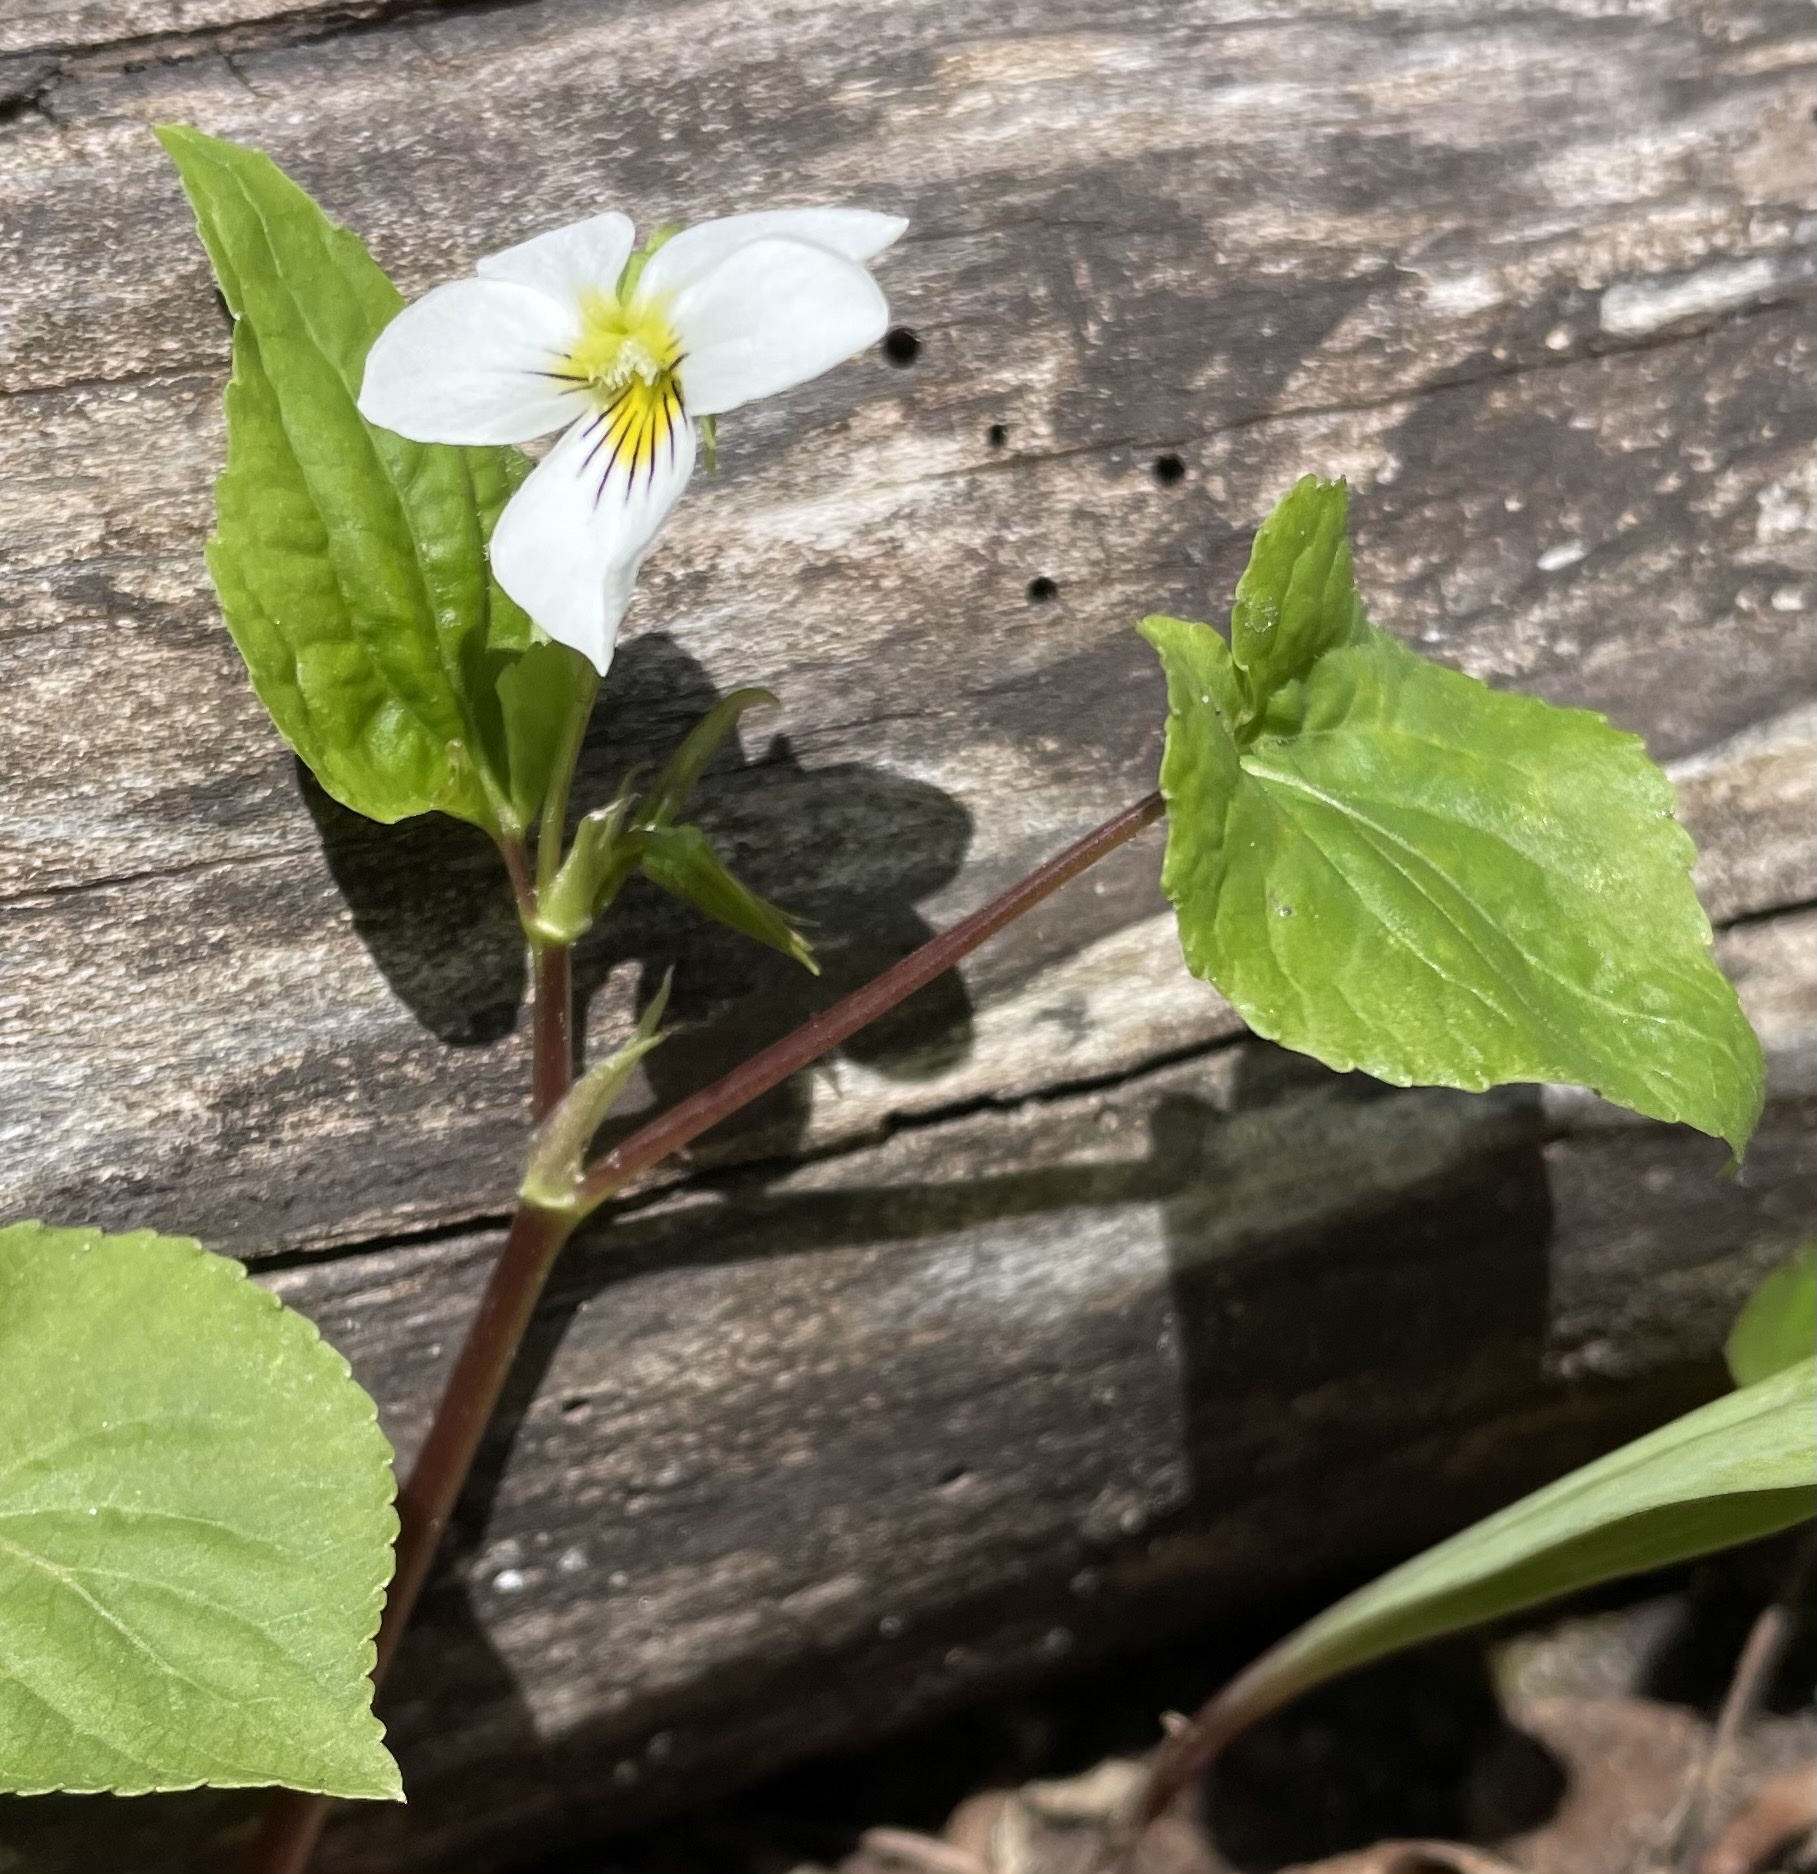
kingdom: Plantae
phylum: Tracheophyta
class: Magnoliopsida
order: Malpighiales
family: Violaceae
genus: Viola
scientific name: Viola canadensis
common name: Canada violet
